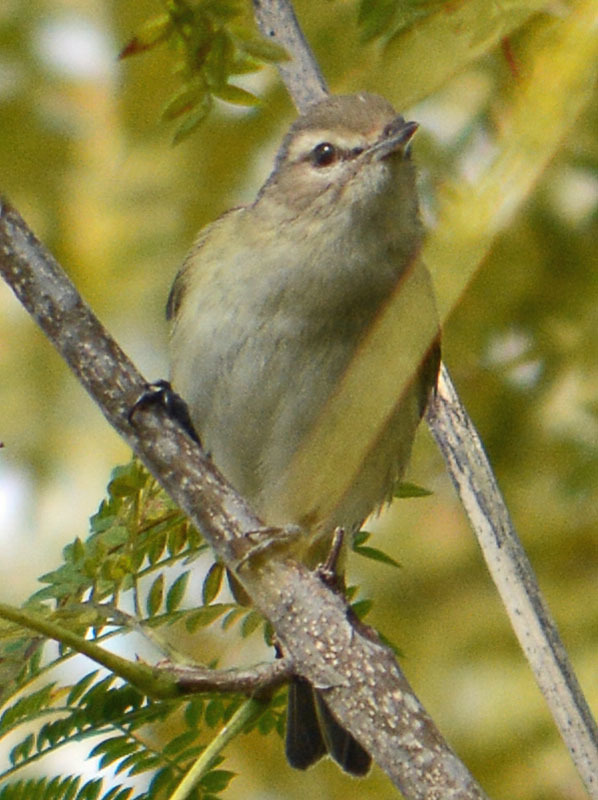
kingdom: Animalia
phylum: Chordata
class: Aves
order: Passeriformes
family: Vireonidae
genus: Vireo
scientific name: Vireo gilvus
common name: Warbling vireo
